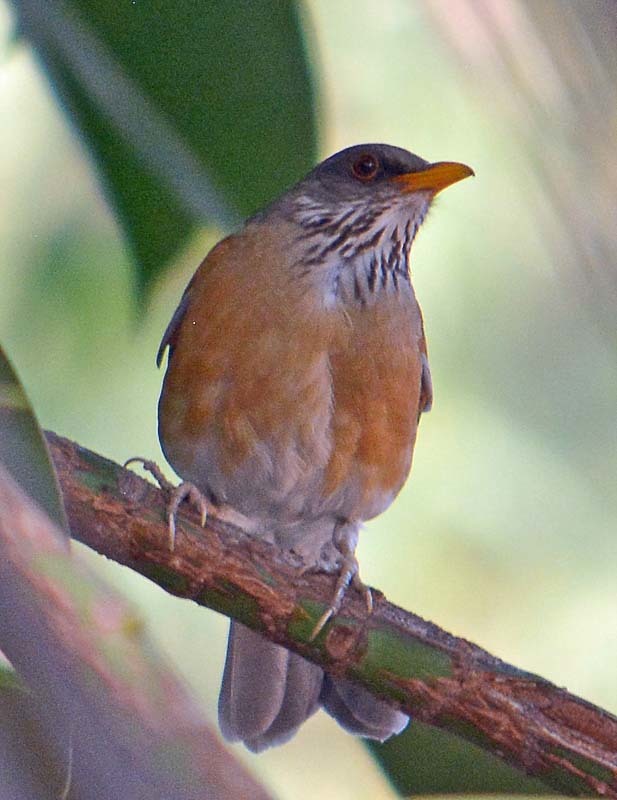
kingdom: Animalia
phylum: Chordata
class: Aves
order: Passeriformes
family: Turdidae
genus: Turdus
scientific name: Turdus rufopalliatus
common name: Rufous-backed robin
